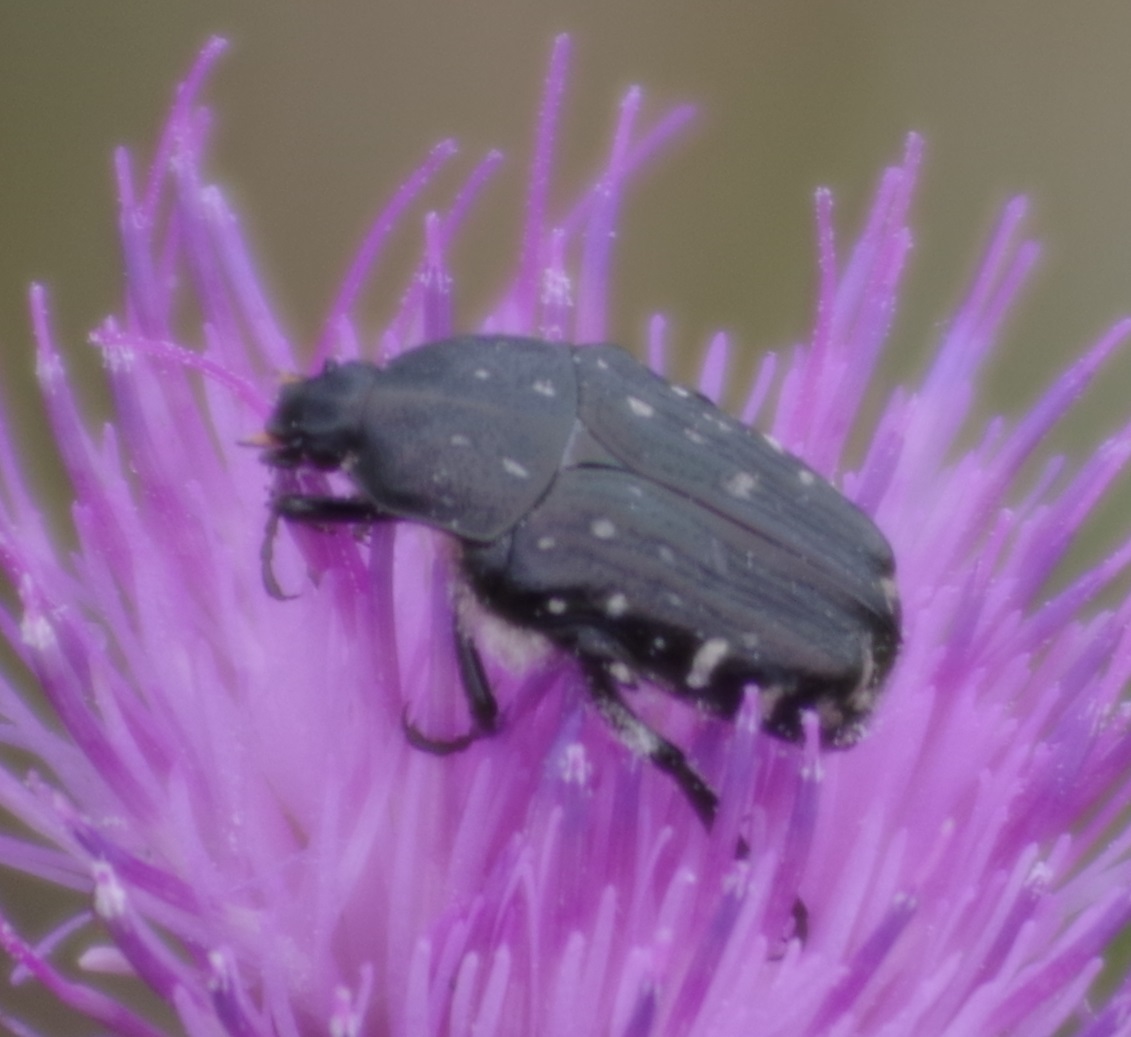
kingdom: Animalia
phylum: Arthropoda
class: Insecta
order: Coleoptera
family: Scarabaeidae
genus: Oxythyrea
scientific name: Oxythyrea funesta
